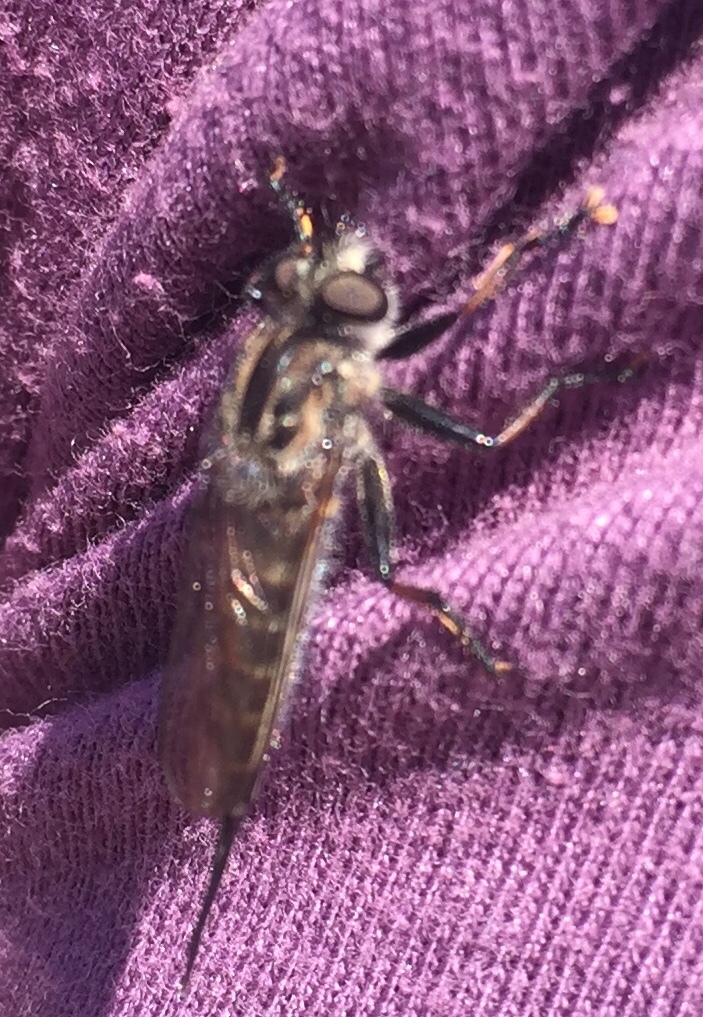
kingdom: Animalia
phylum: Arthropoda
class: Insecta
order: Diptera
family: Asilidae
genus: Efferia
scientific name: Efferia aestuans
